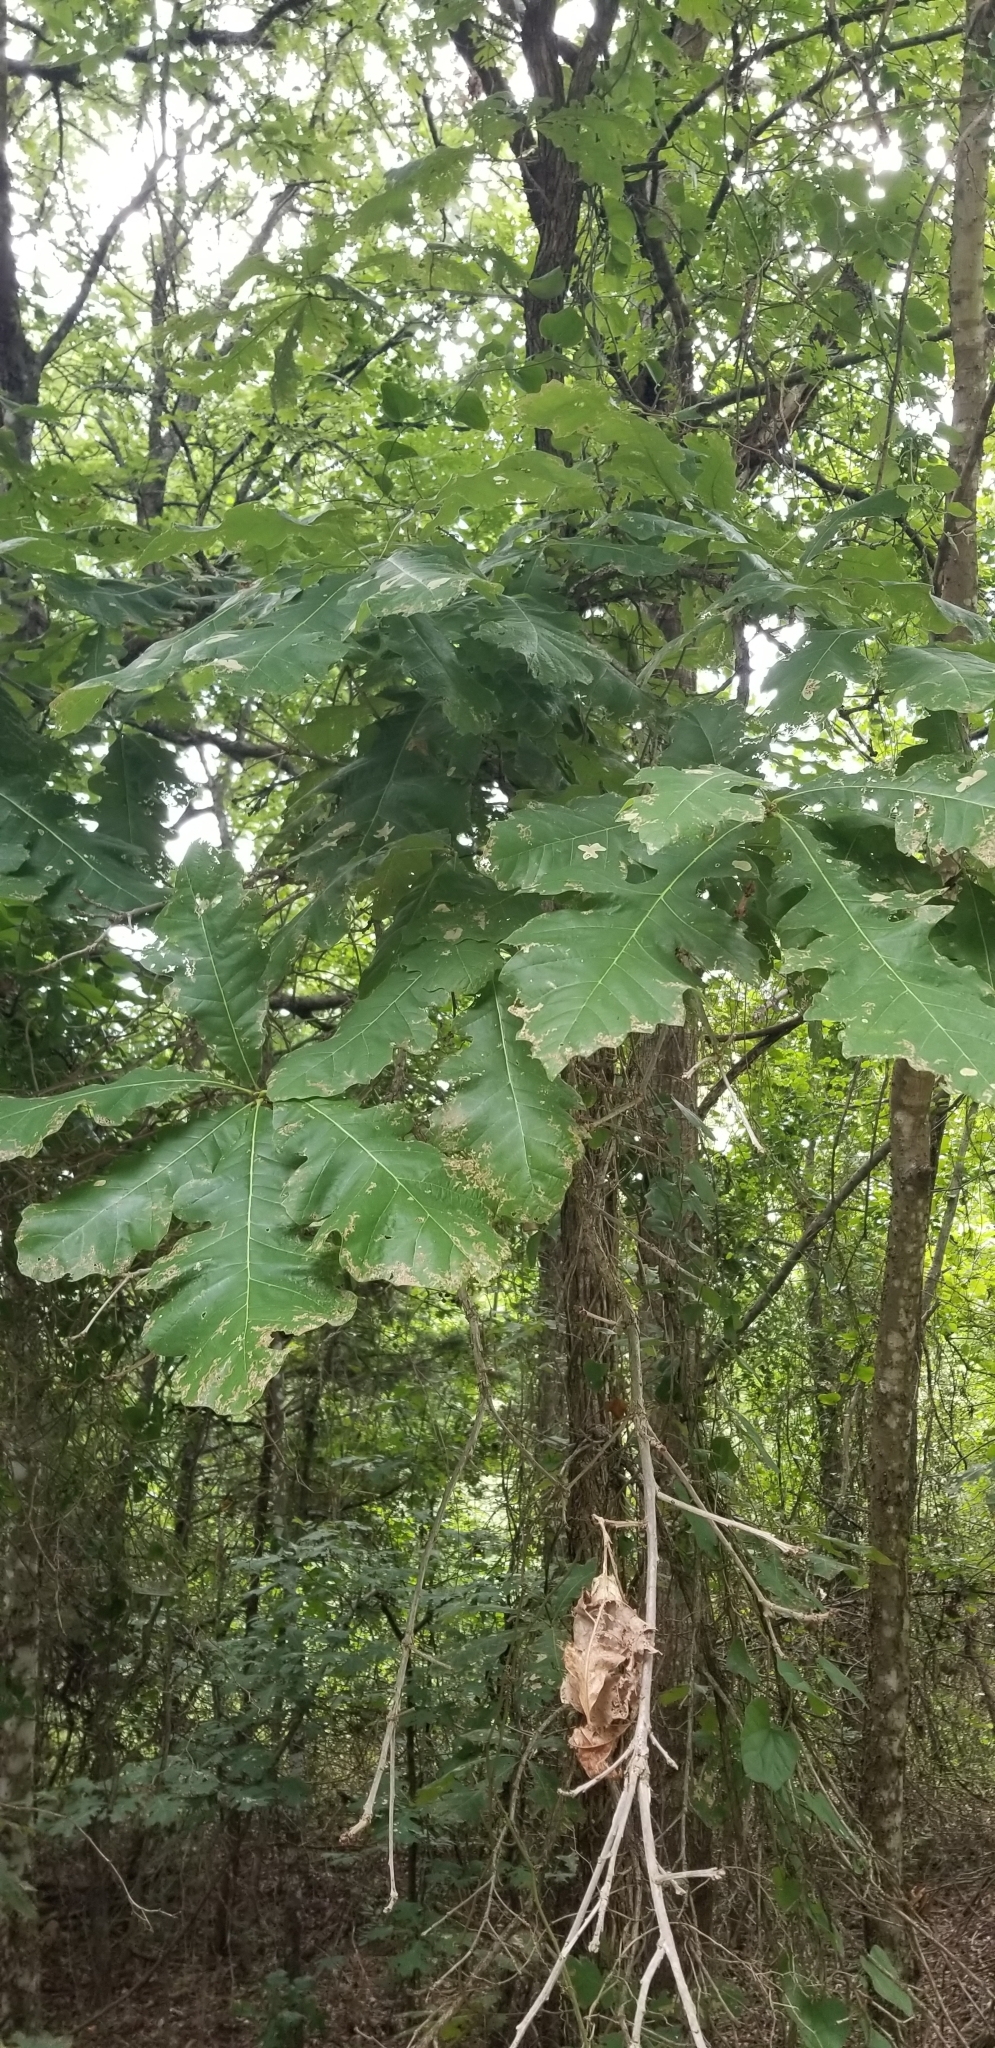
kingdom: Plantae
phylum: Tracheophyta
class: Magnoliopsida
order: Fagales
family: Fagaceae
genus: Quercus
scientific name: Quercus macrocarpa
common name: Bur oak
